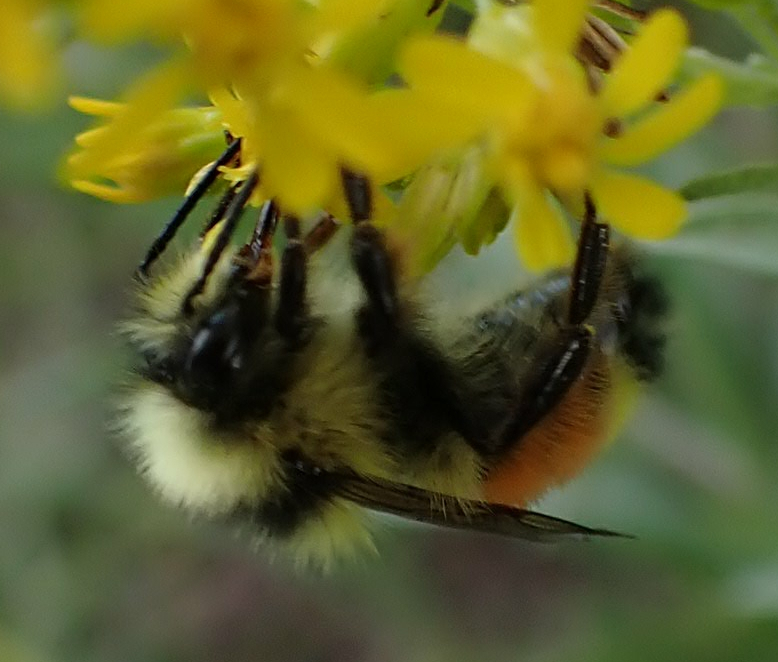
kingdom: Animalia
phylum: Arthropoda
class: Insecta
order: Hymenoptera
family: Apidae
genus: Bombus
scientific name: Bombus ternarius
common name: Tri-colored bumble bee
